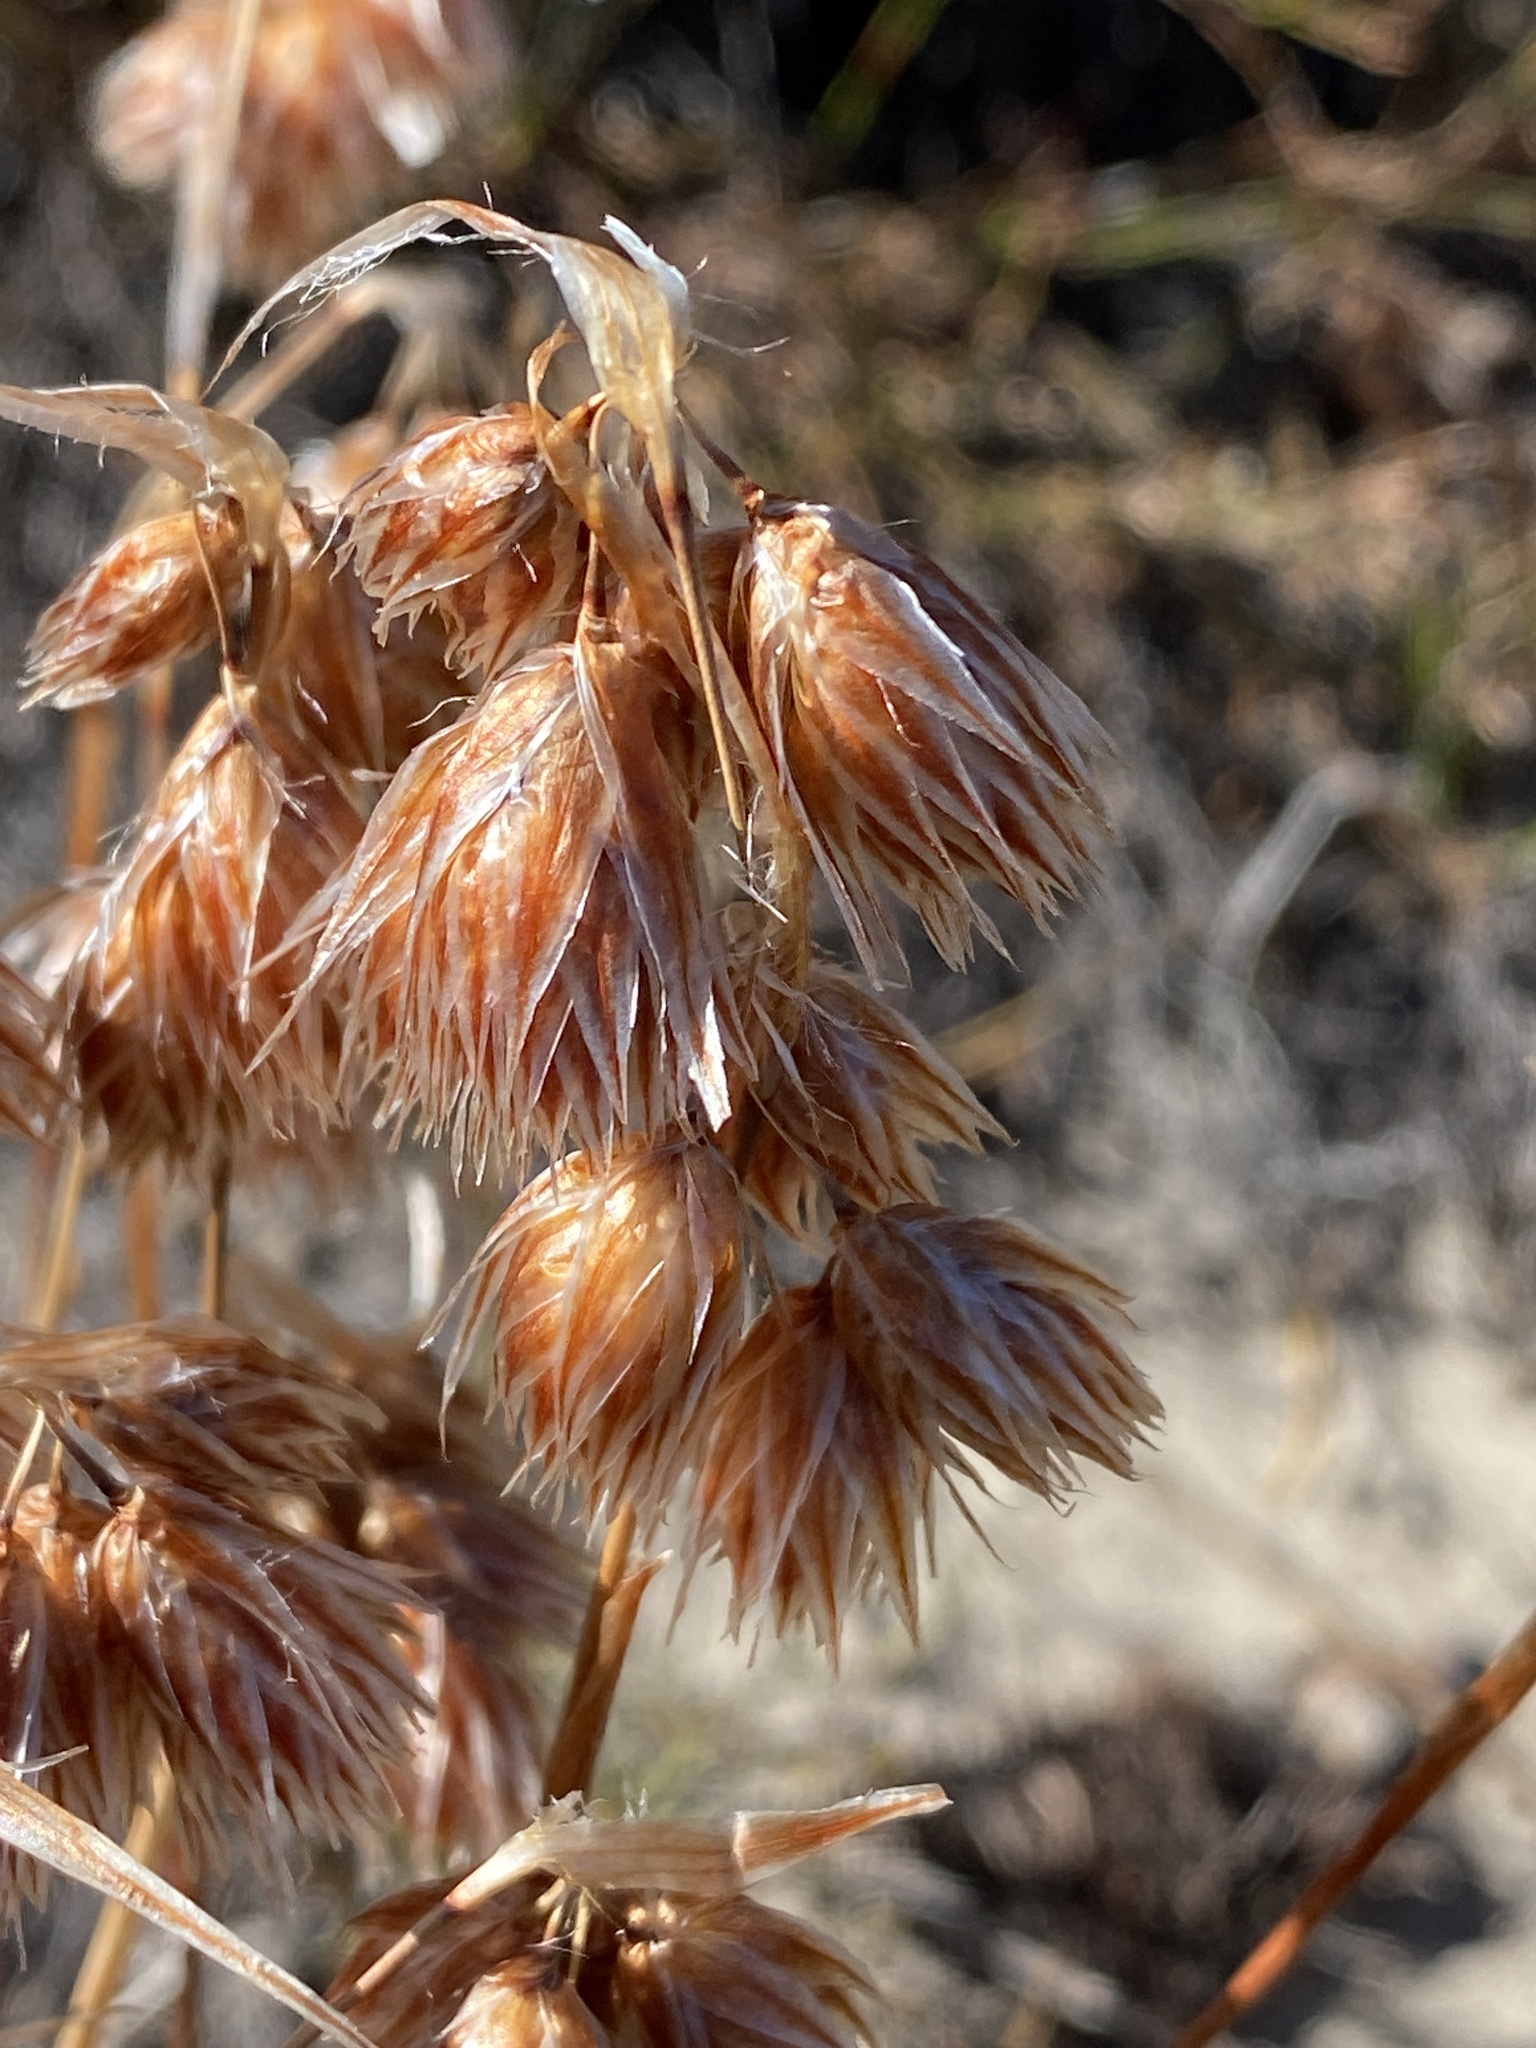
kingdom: Plantae
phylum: Tracheophyta
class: Liliopsida
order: Poales
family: Restionaceae
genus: Thamnochortus
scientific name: Thamnochortus acuminatus
